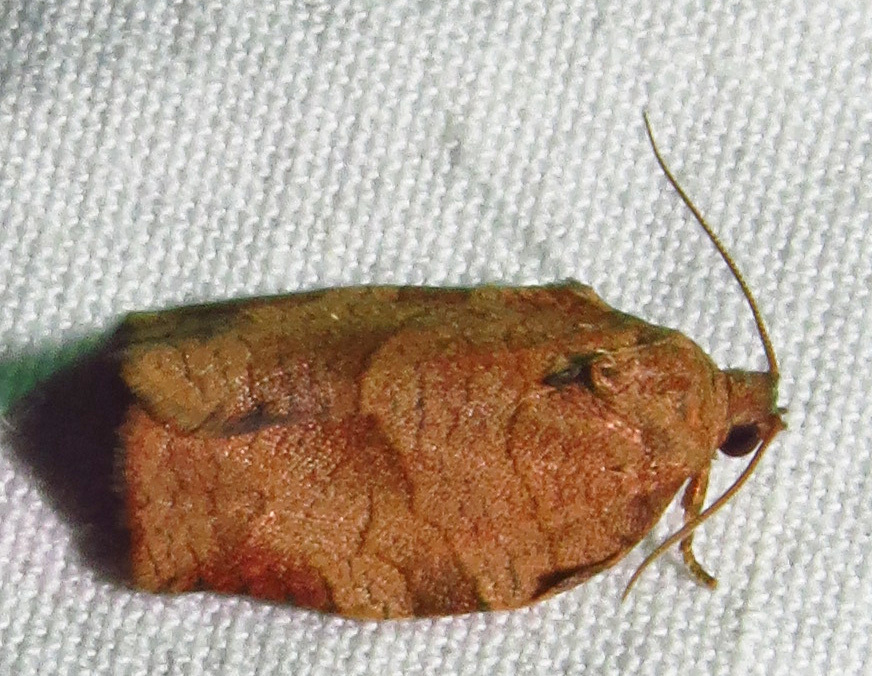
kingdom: Animalia
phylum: Arthropoda
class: Insecta
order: Lepidoptera
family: Tortricidae
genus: Choristoneura
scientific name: Choristoneura rosaceana
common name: Oblique-banded leafroller moth
